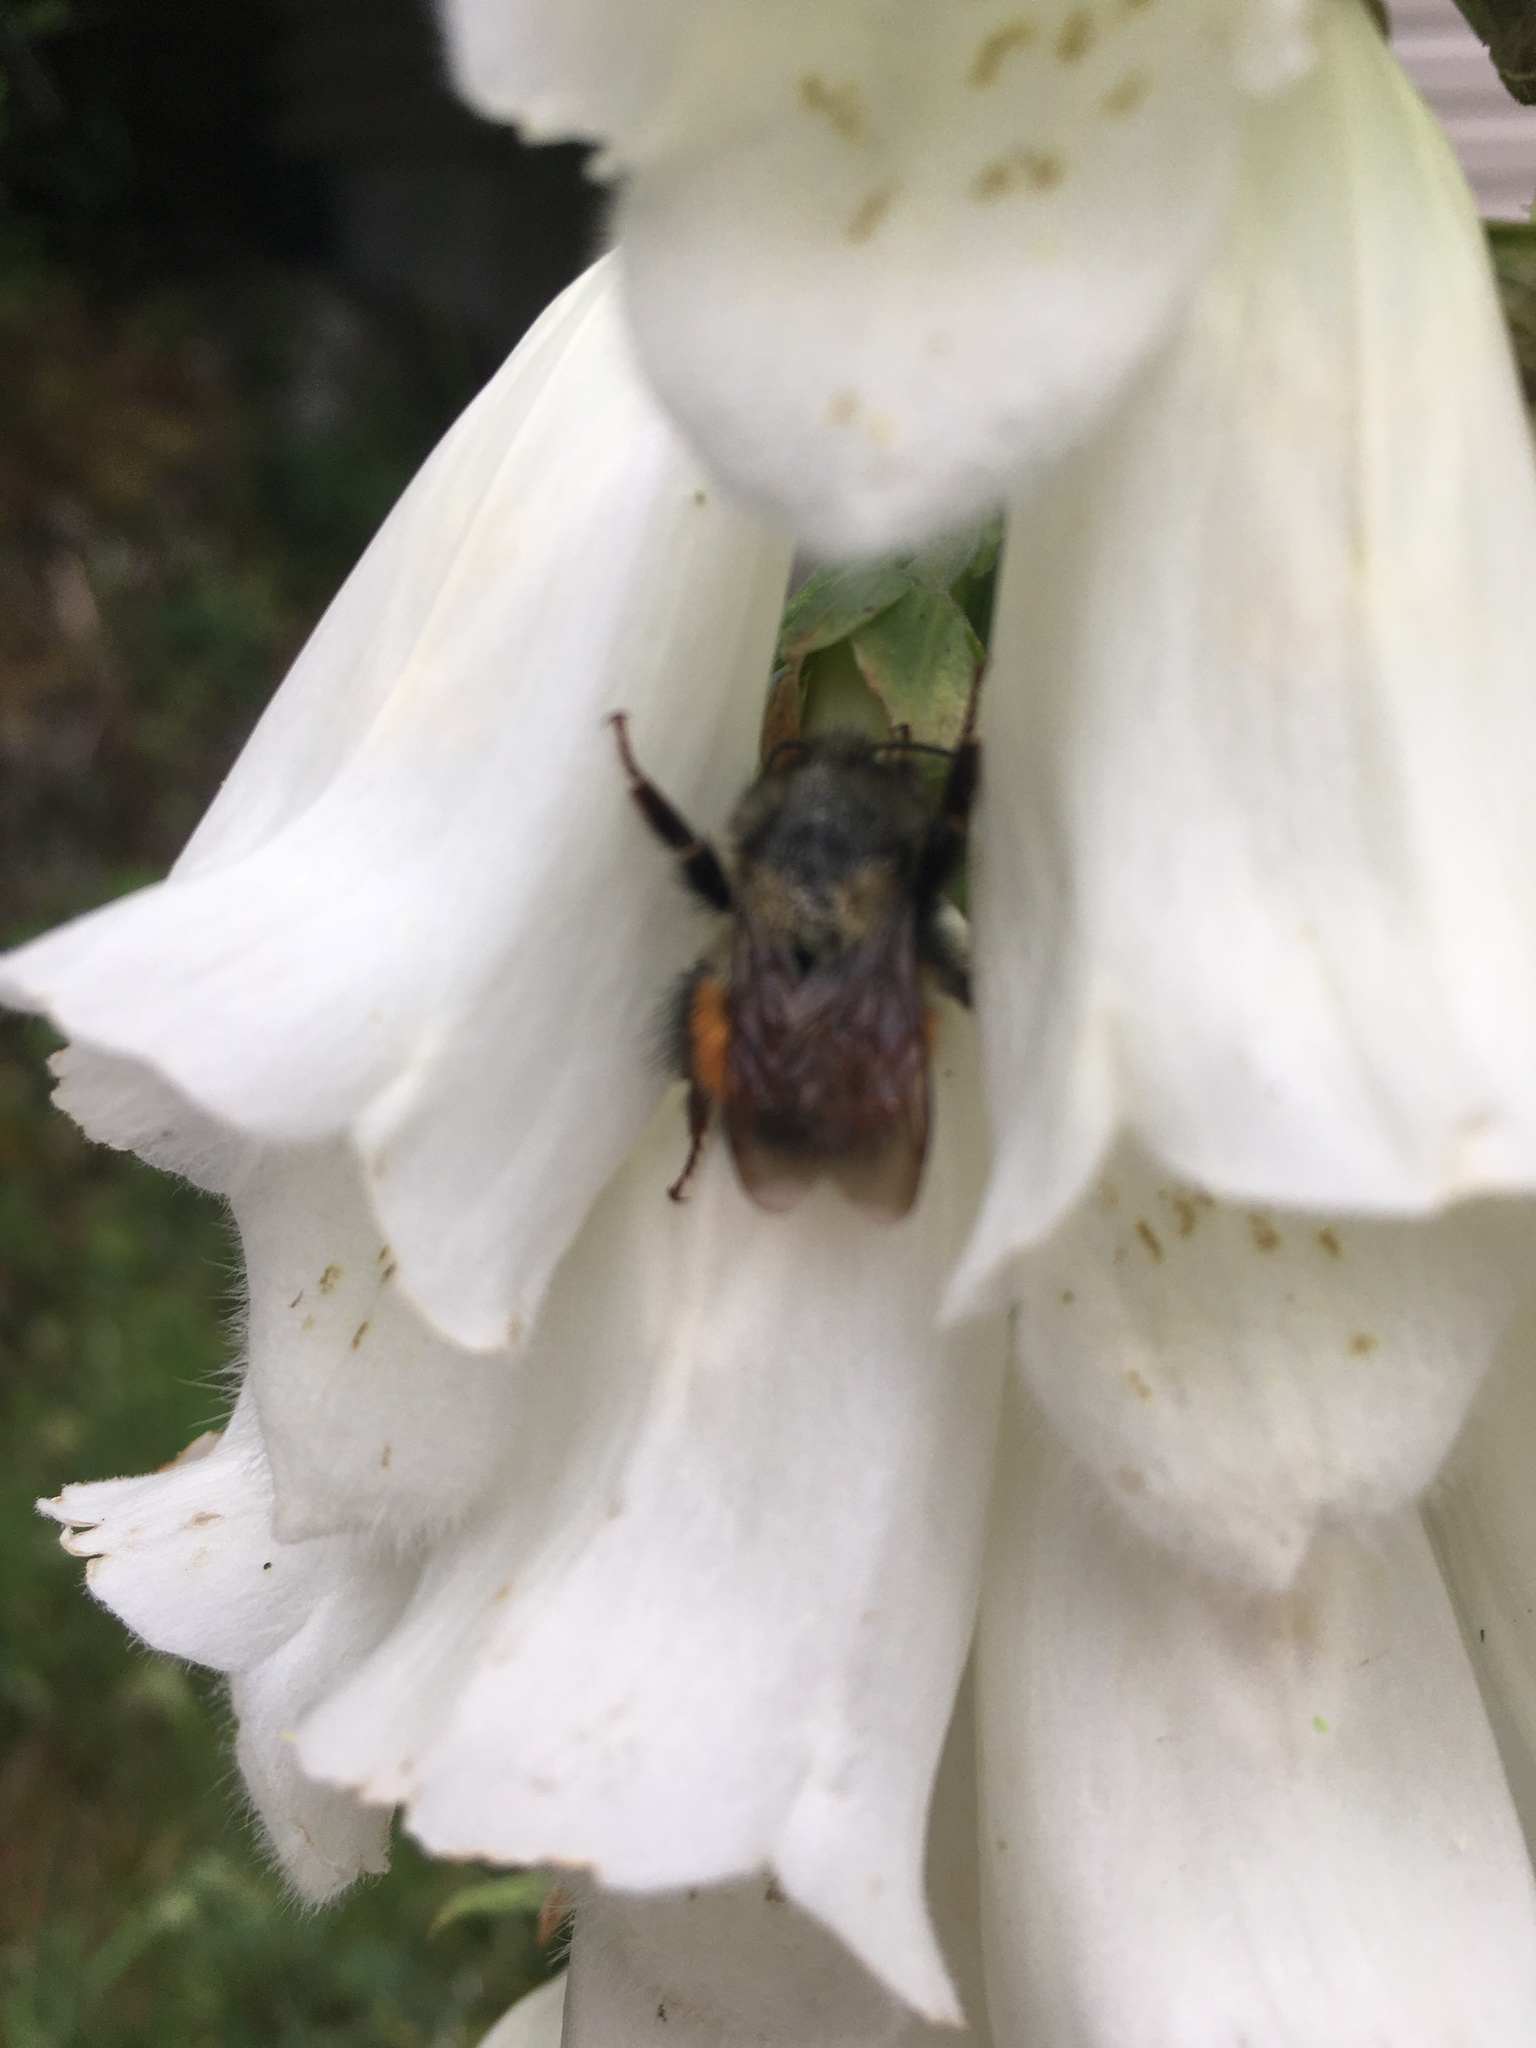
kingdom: Animalia
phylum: Arthropoda
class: Insecta
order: Hymenoptera
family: Apidae
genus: Bombus
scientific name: Bombus melanopygus
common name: Black tail bumble bee
